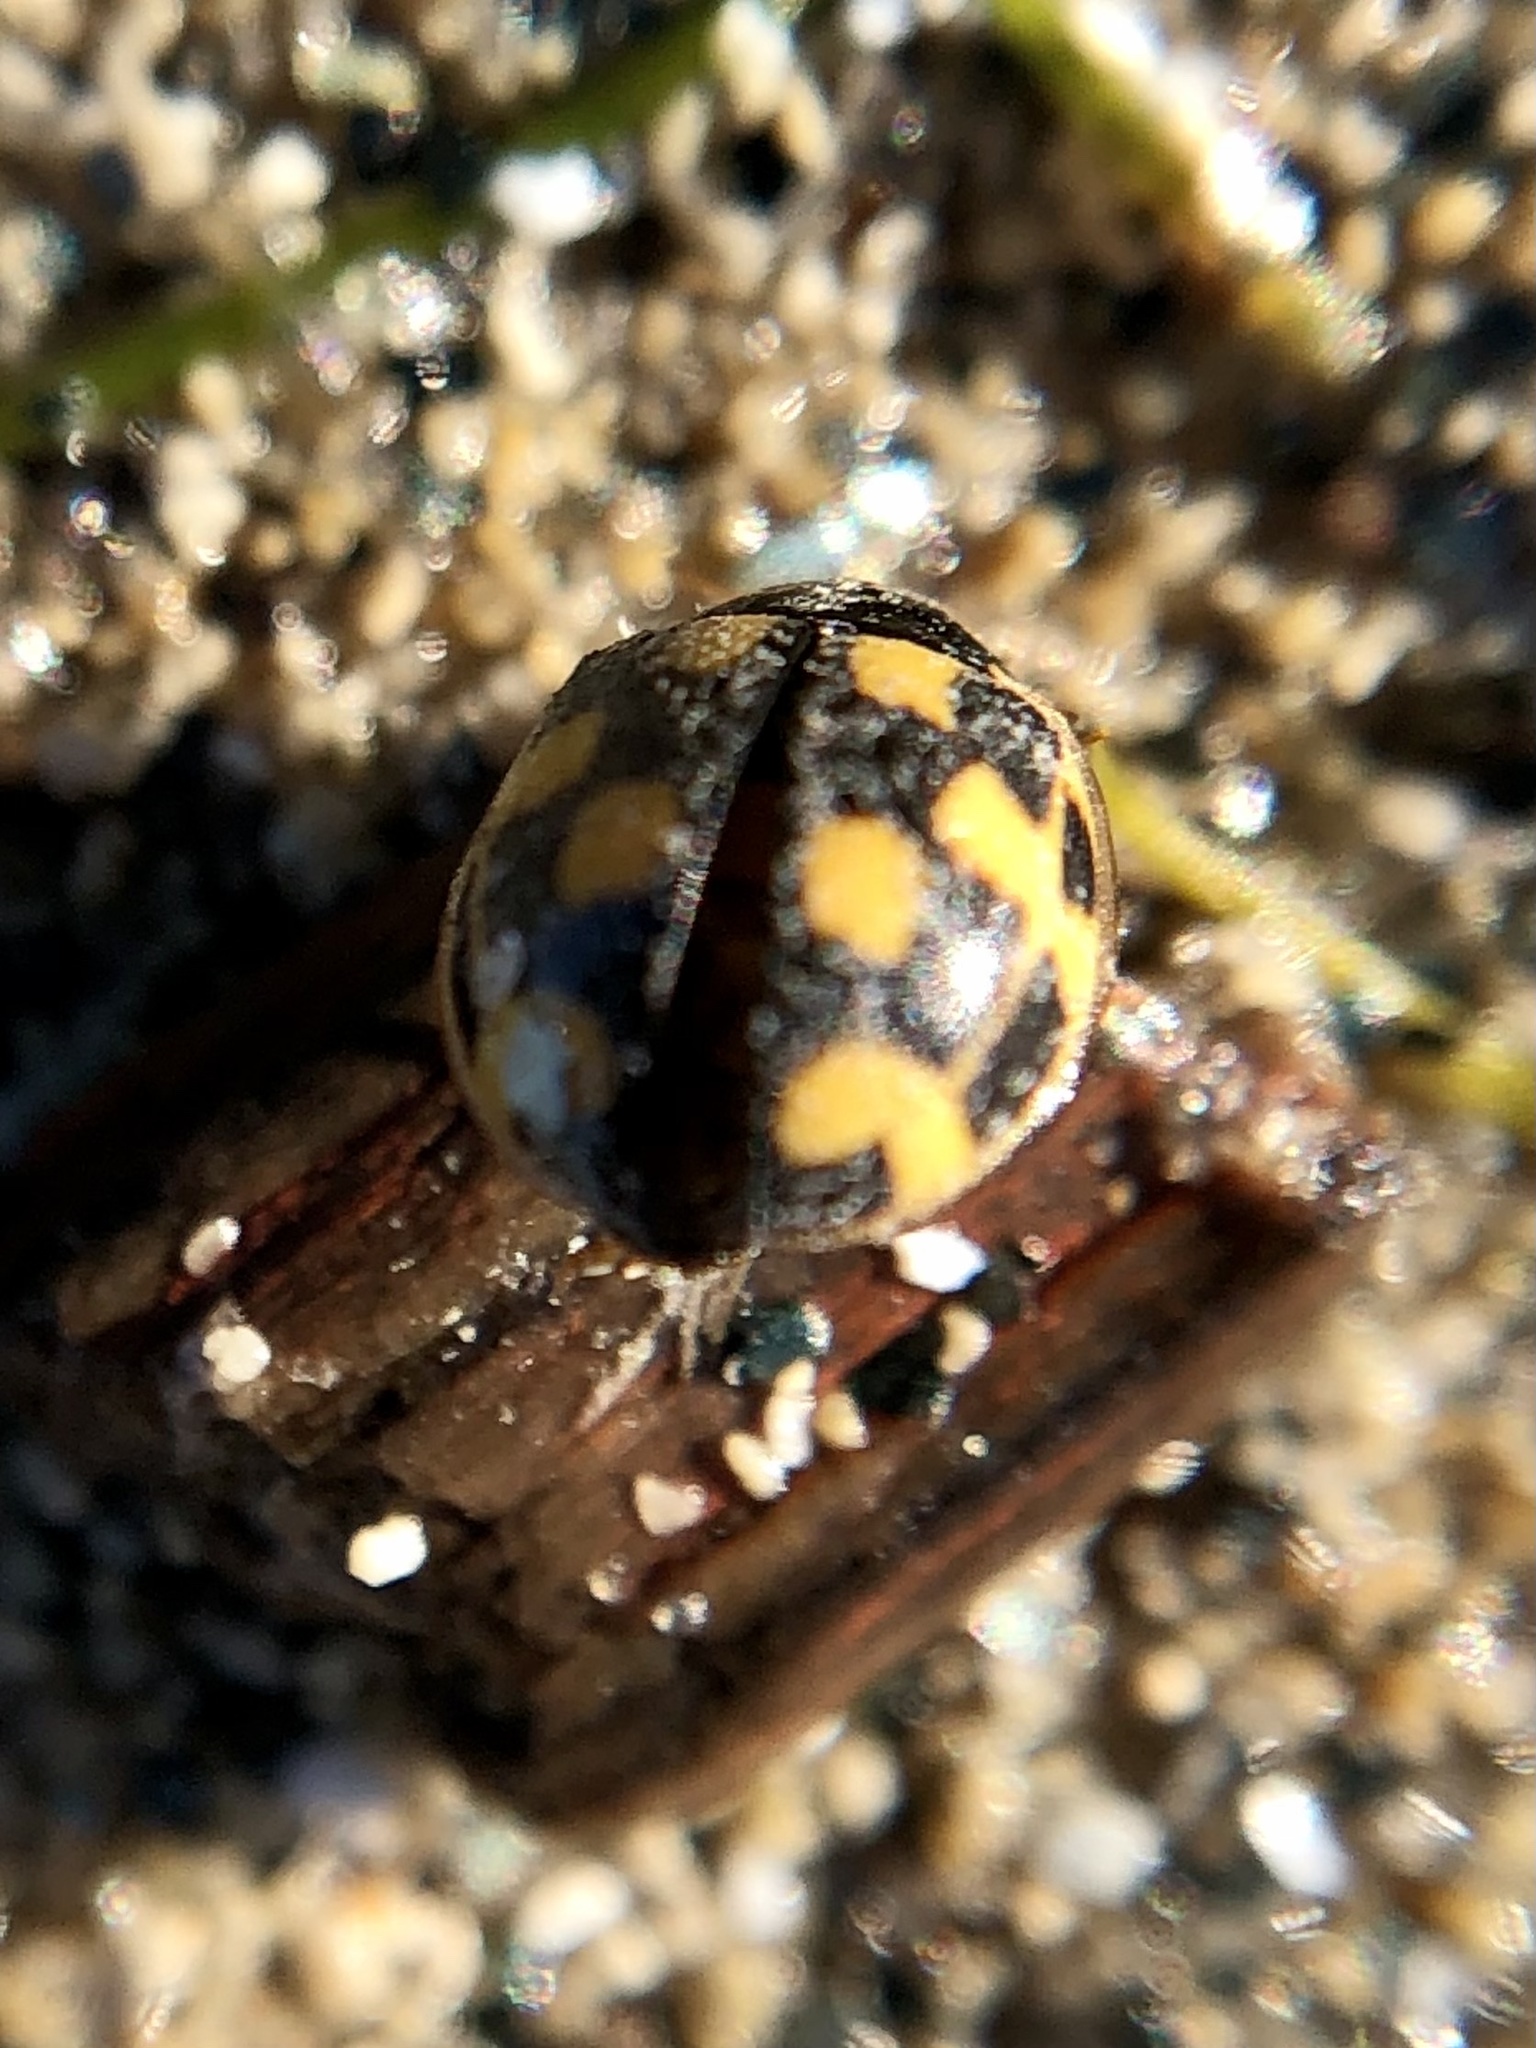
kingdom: Animalia
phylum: Arthropoda
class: Insecta
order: Coleoptera
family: Coccinellidae
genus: Propylaea
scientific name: Propylaea quatuordecimpunctata
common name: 14-spotted ladybird beetle
